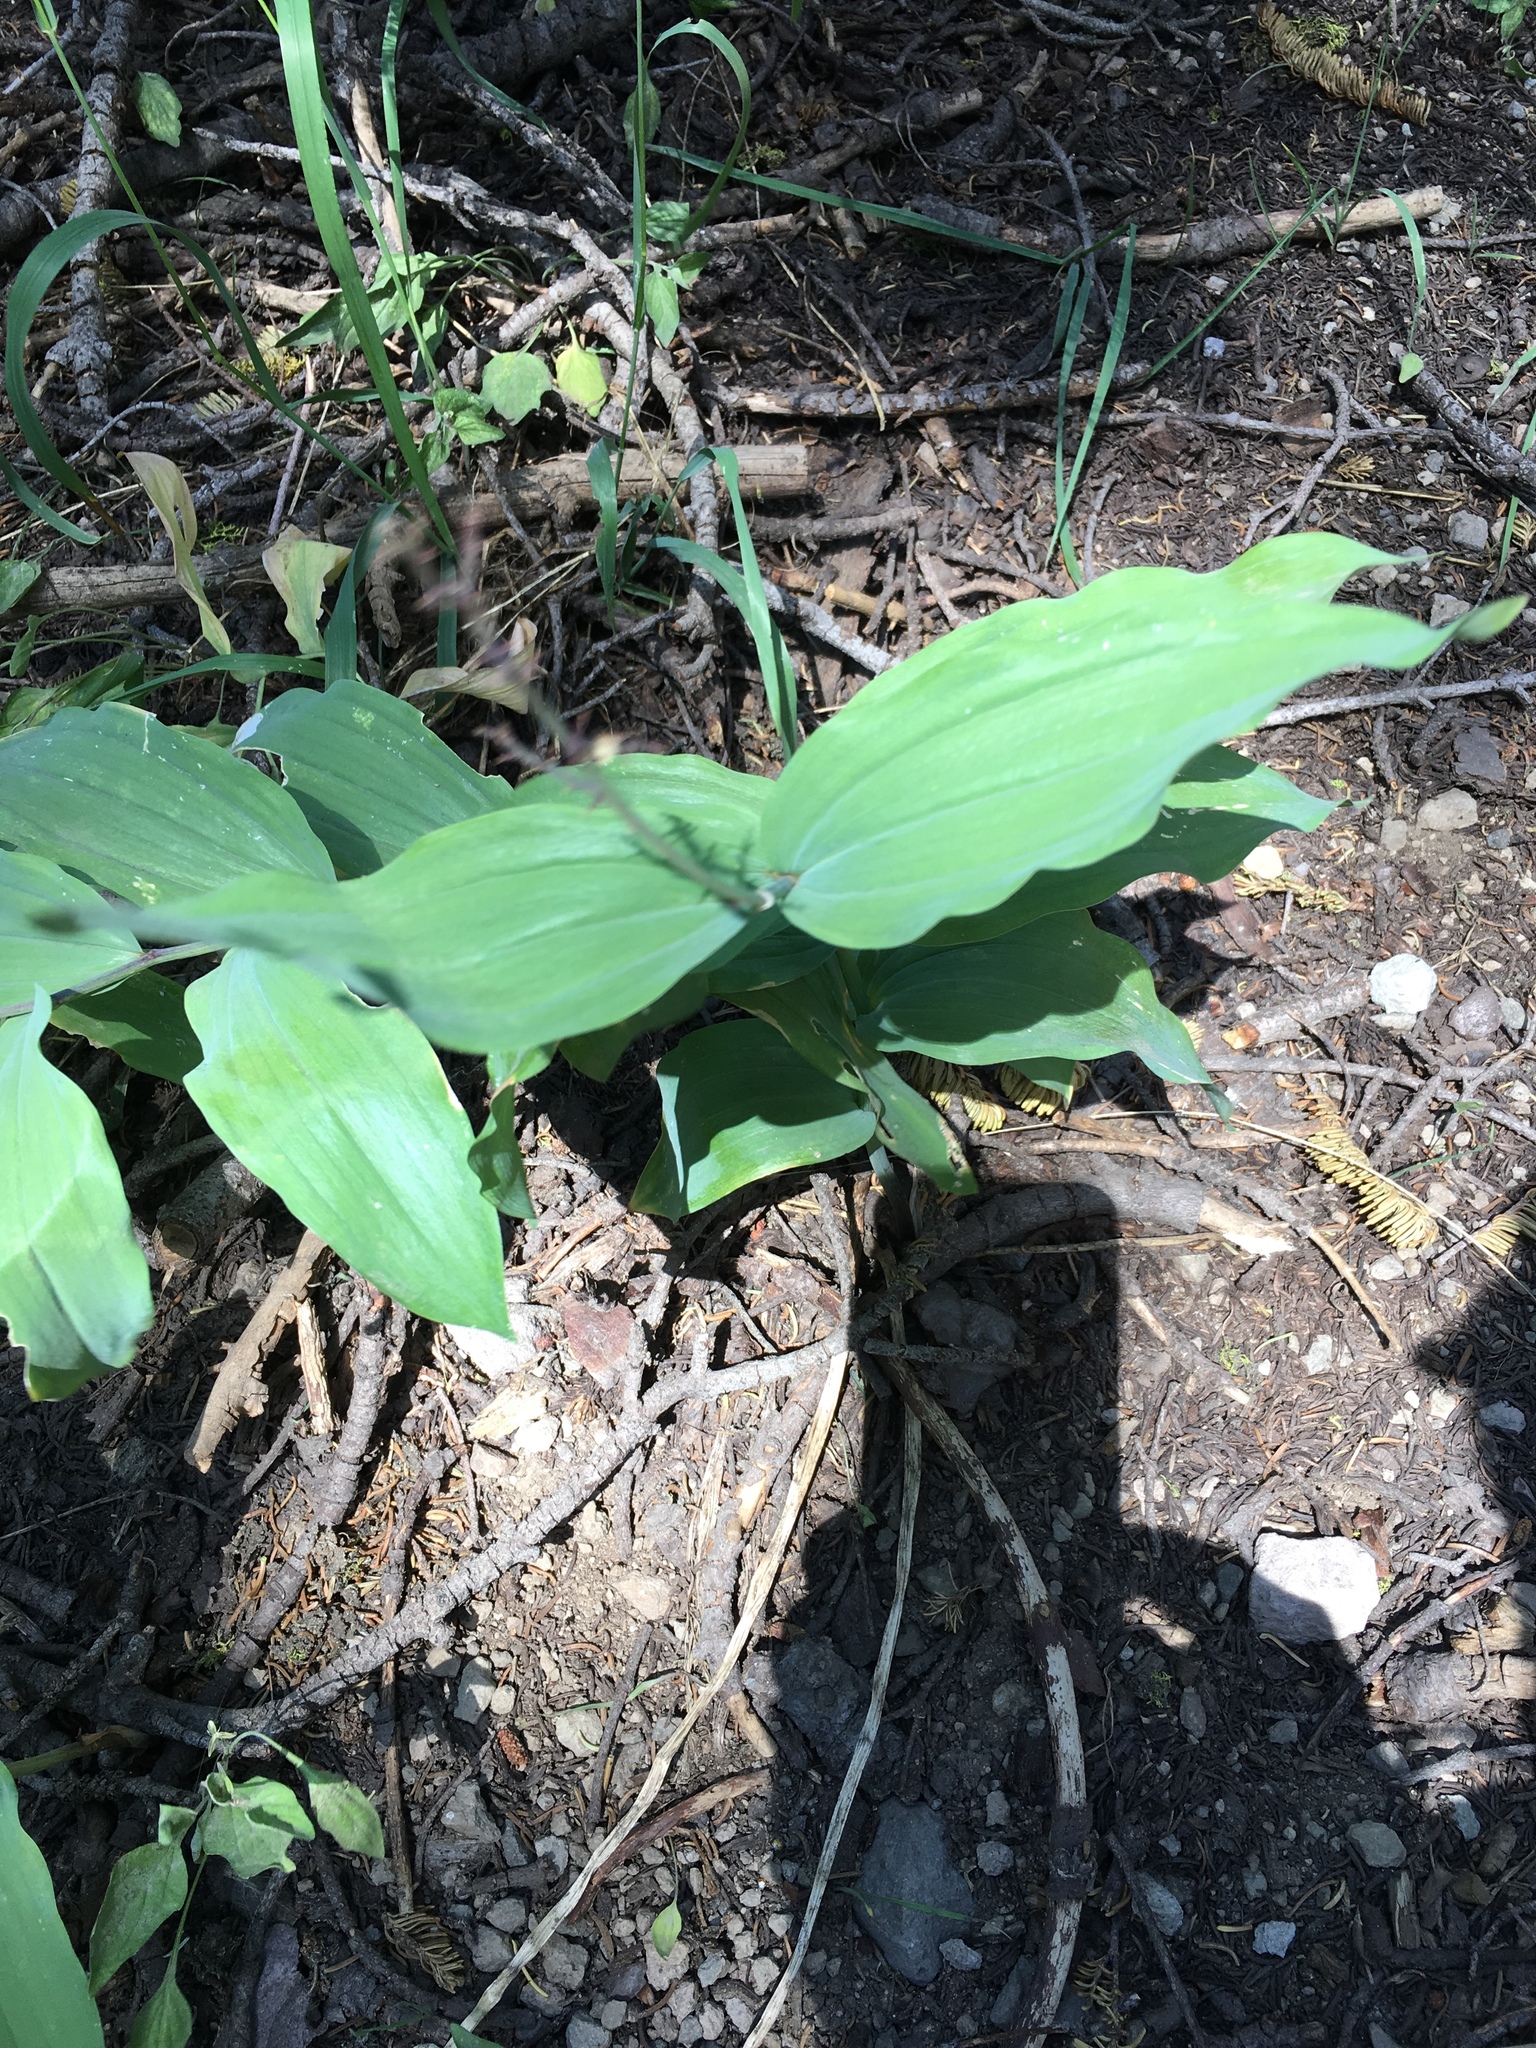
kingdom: Plantae
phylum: Tracheophyta
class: Liliopsida
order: Asparagales
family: Asparagaceae
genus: Maianthemum
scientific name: Maianthemum racemosum
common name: False spikenard
